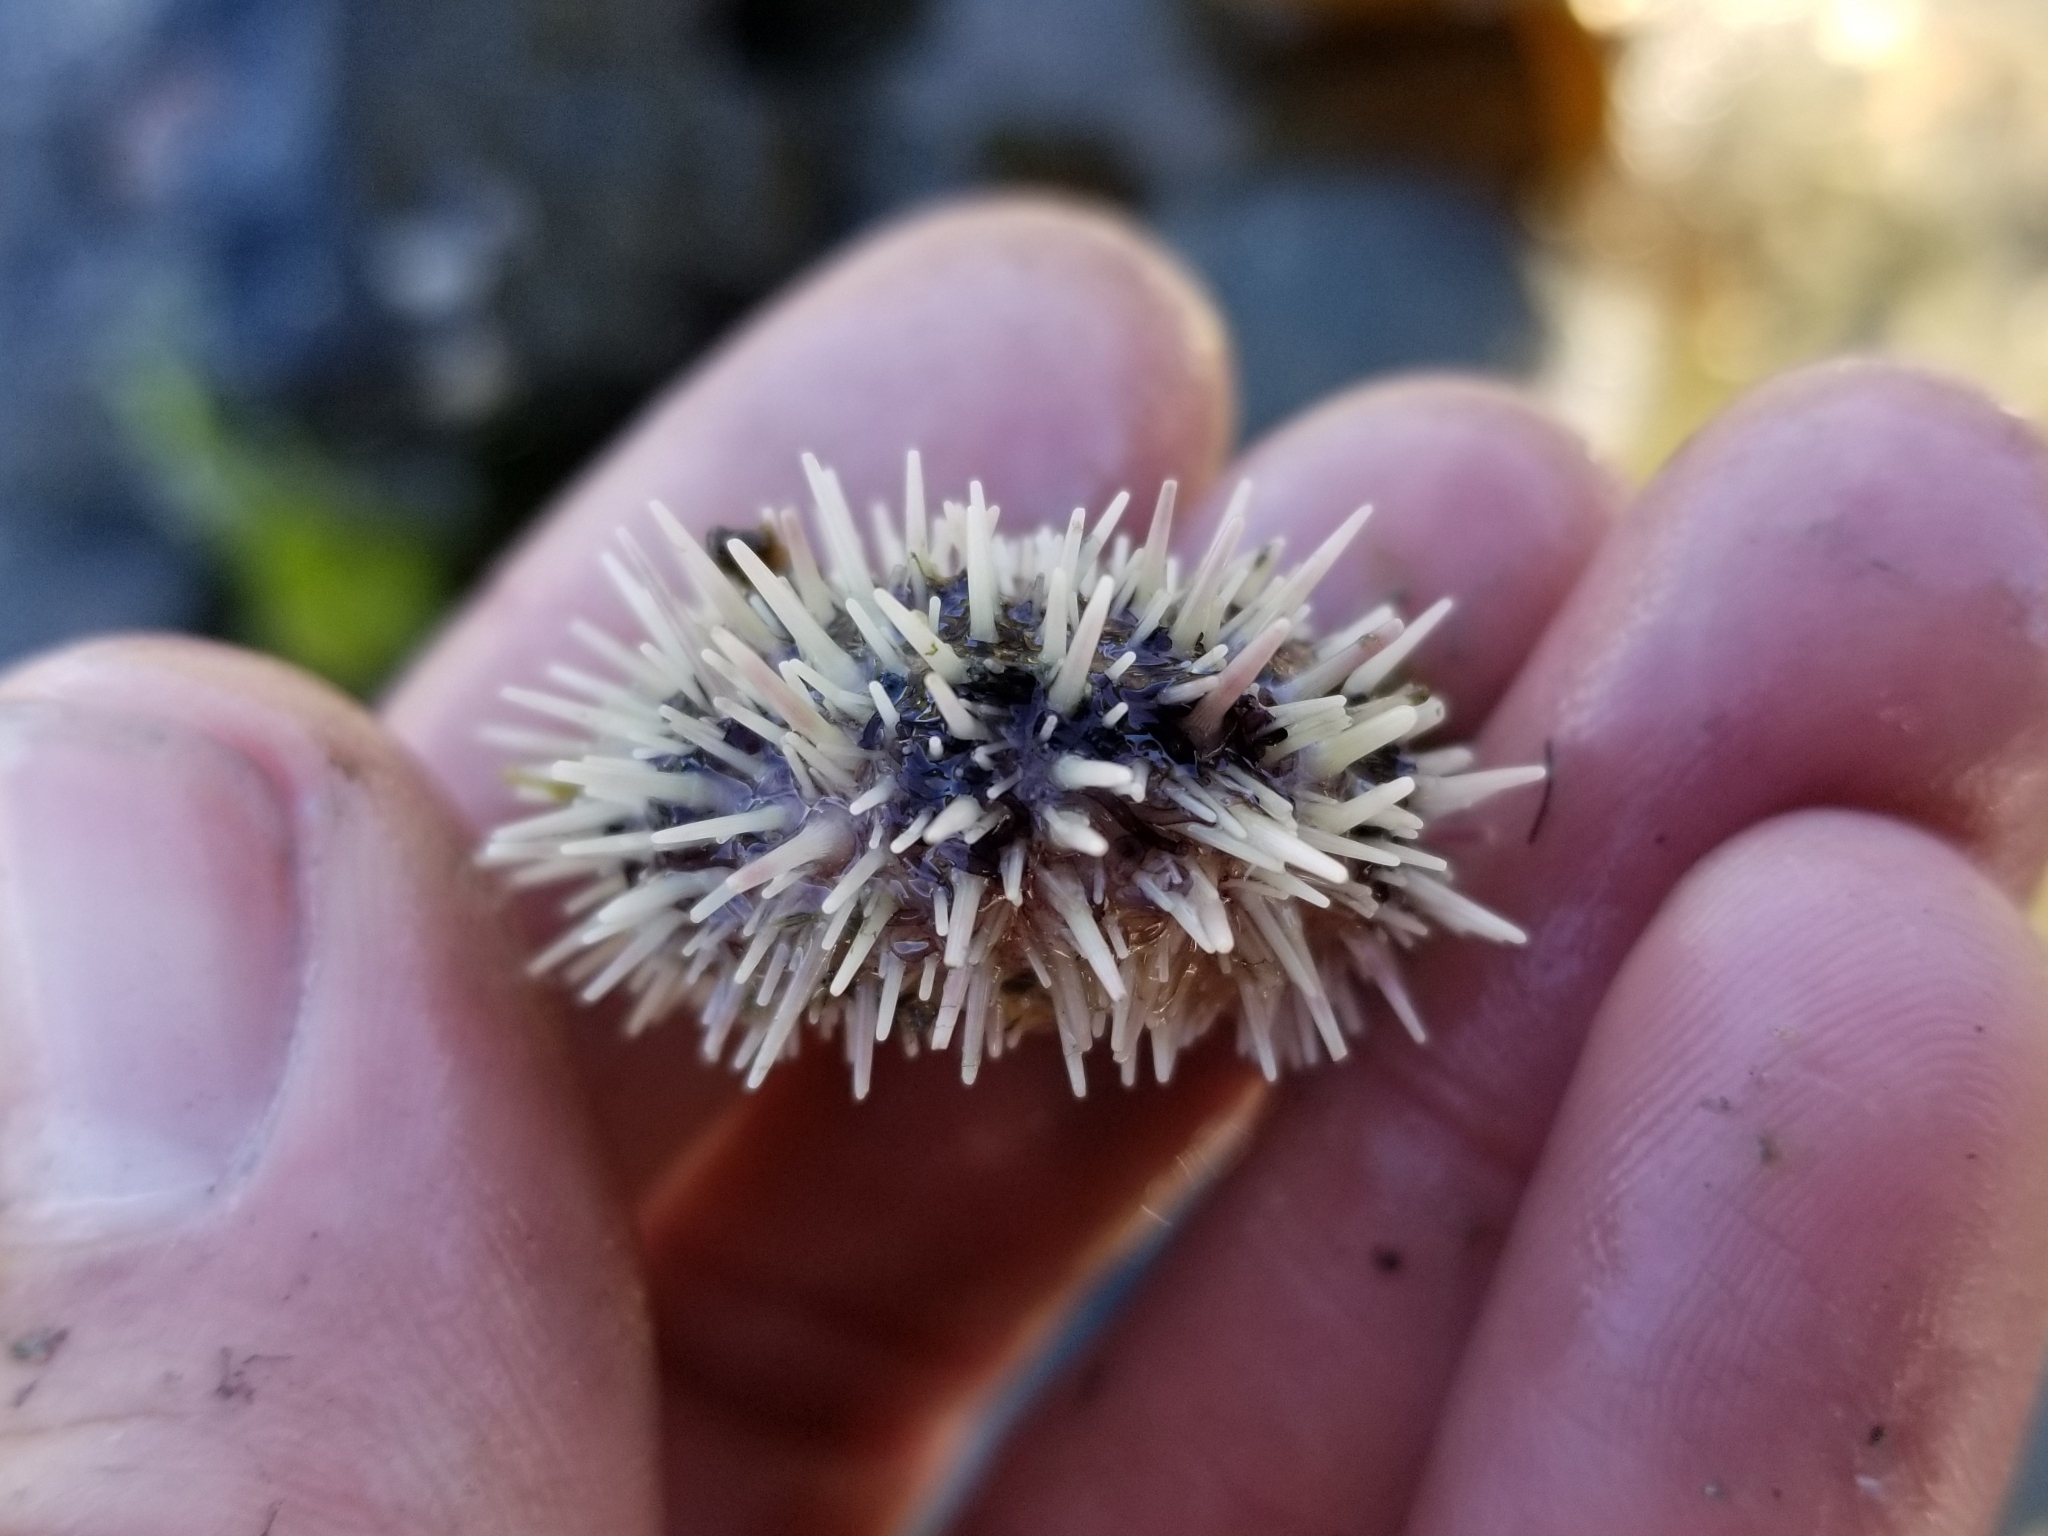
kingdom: Animalia
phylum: Echinodermata
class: Echinoidea
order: Camarodonta
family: Strongylocentrotidae
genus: Strongylocentrotus
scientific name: Strongylocentrotus droebachiensis
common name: Northern sea urchin
